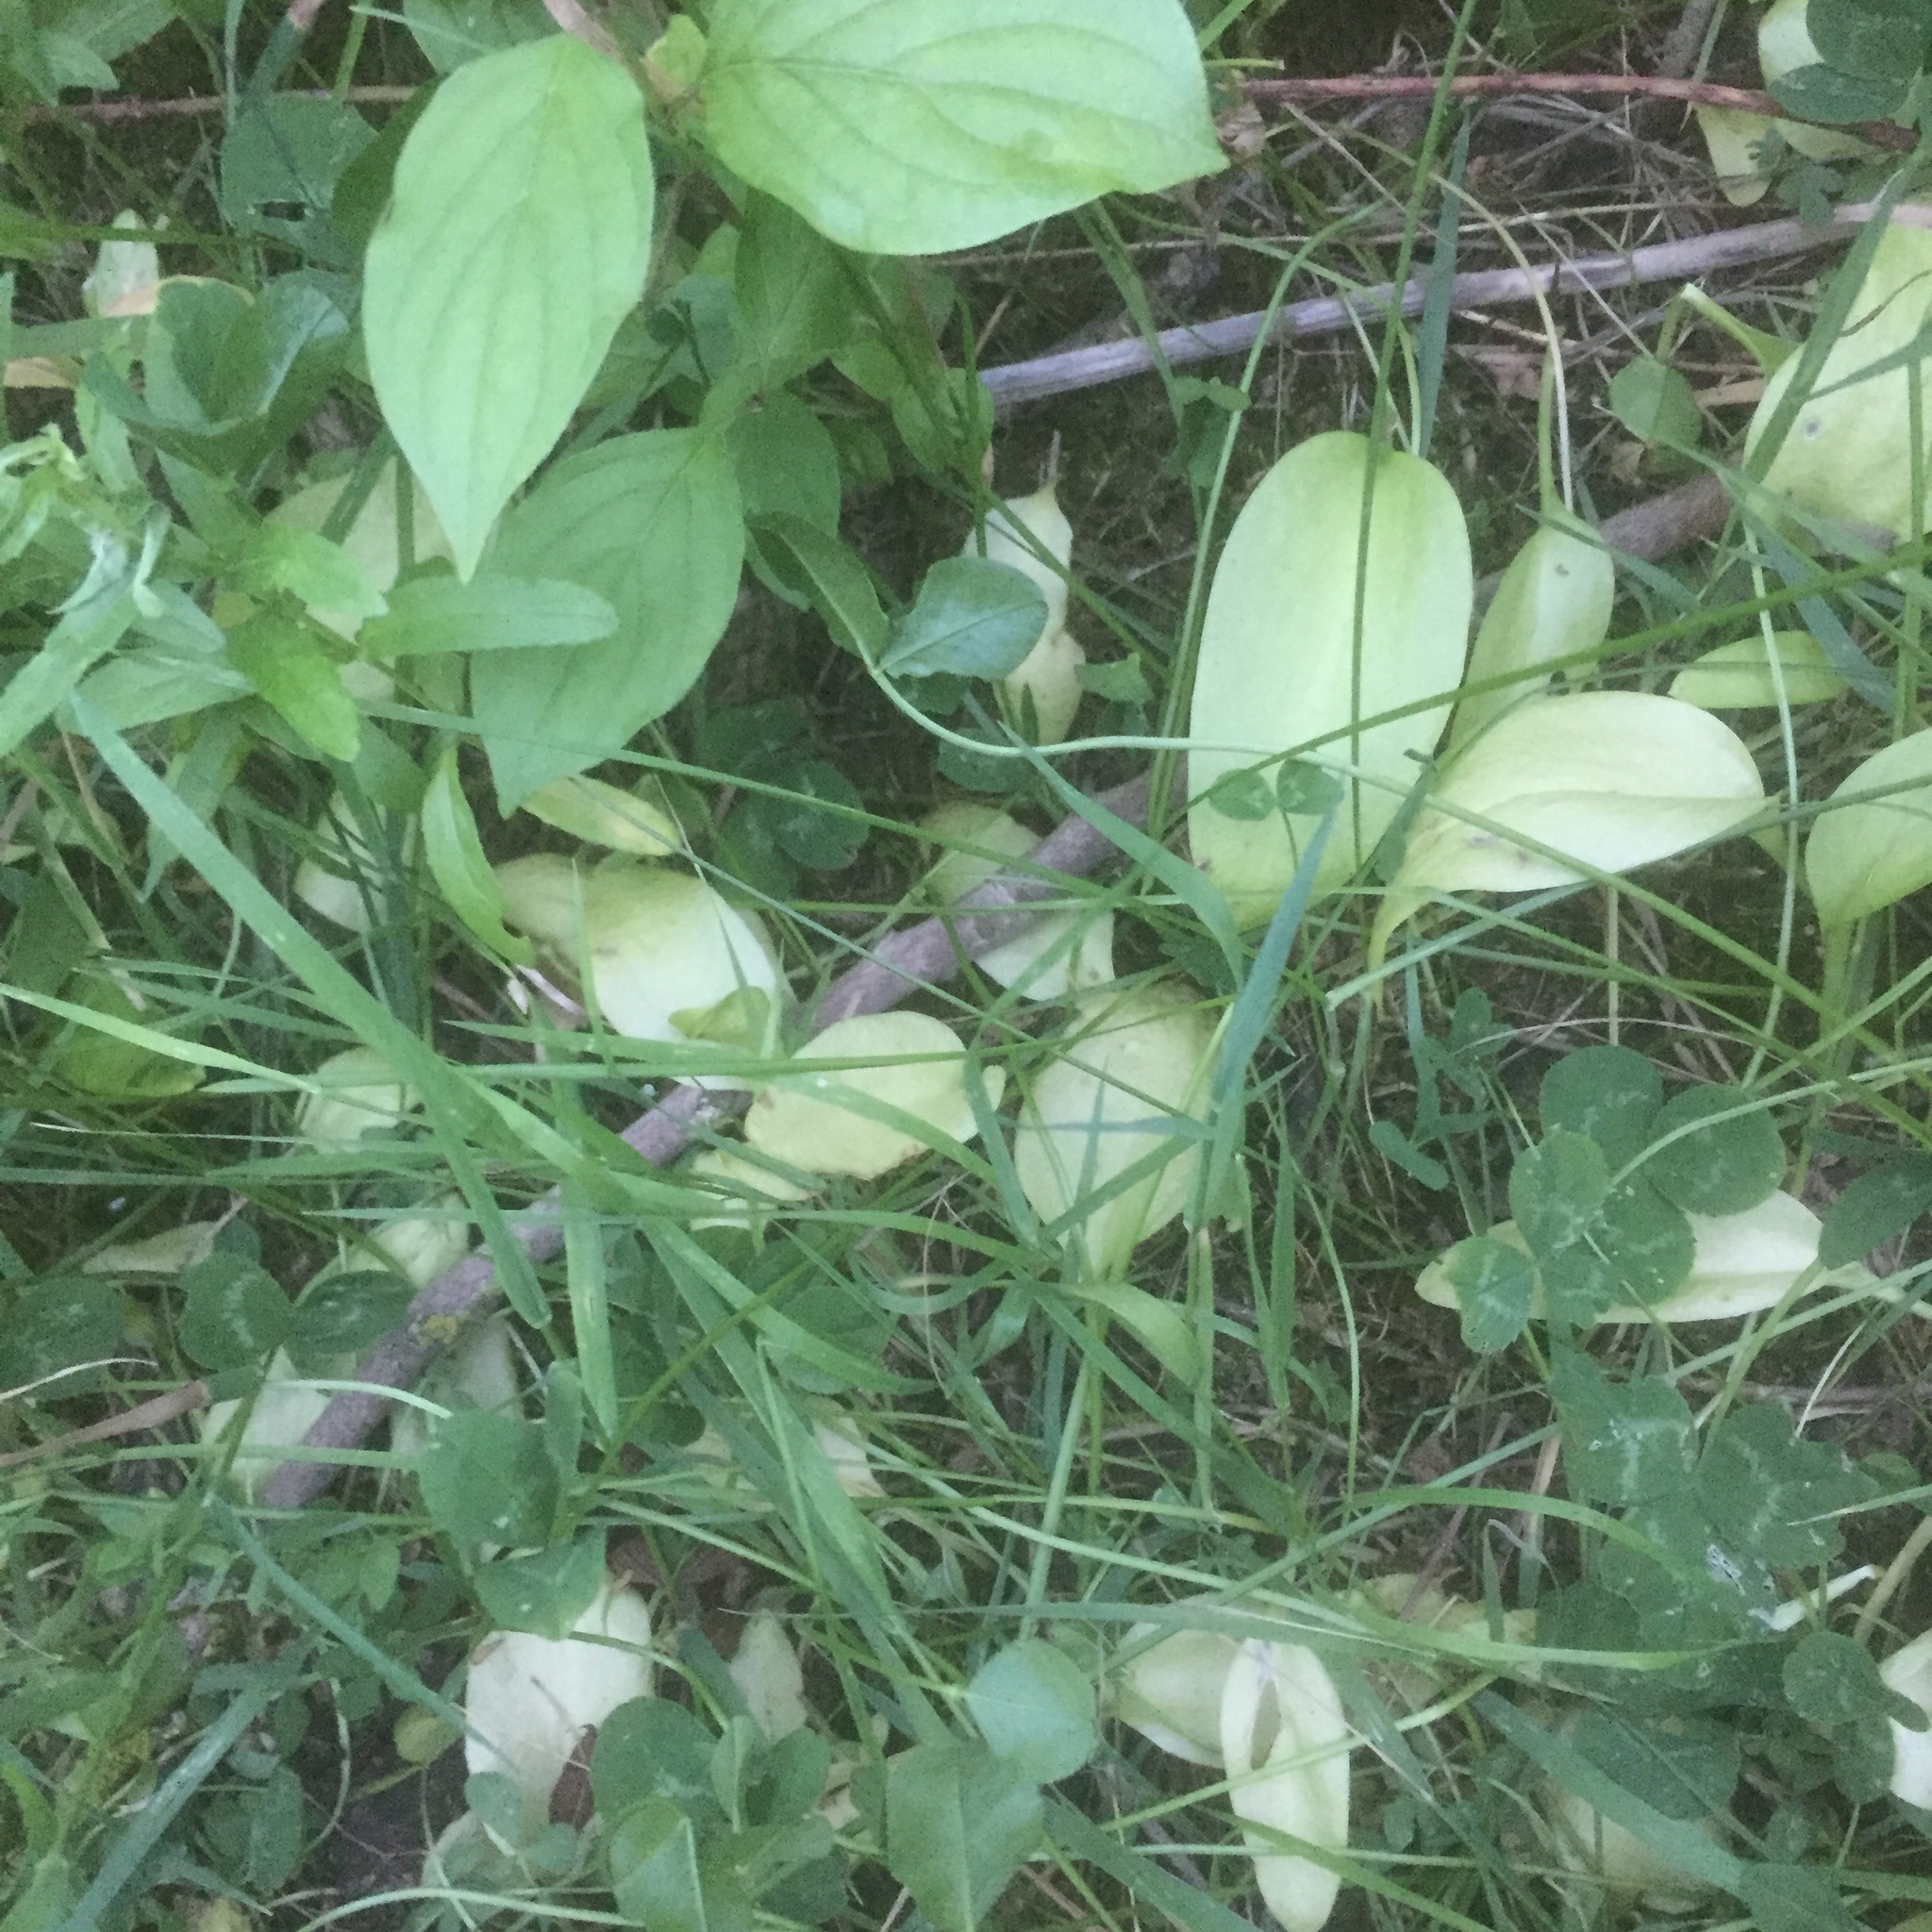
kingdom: Plantae
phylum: Tracheophyta
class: Polypodiopsida
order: Ophioglossales
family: Ophioglossaceae
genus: Ophioglossum
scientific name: Ophioglossum vulgatum
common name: Adder's-tongue
